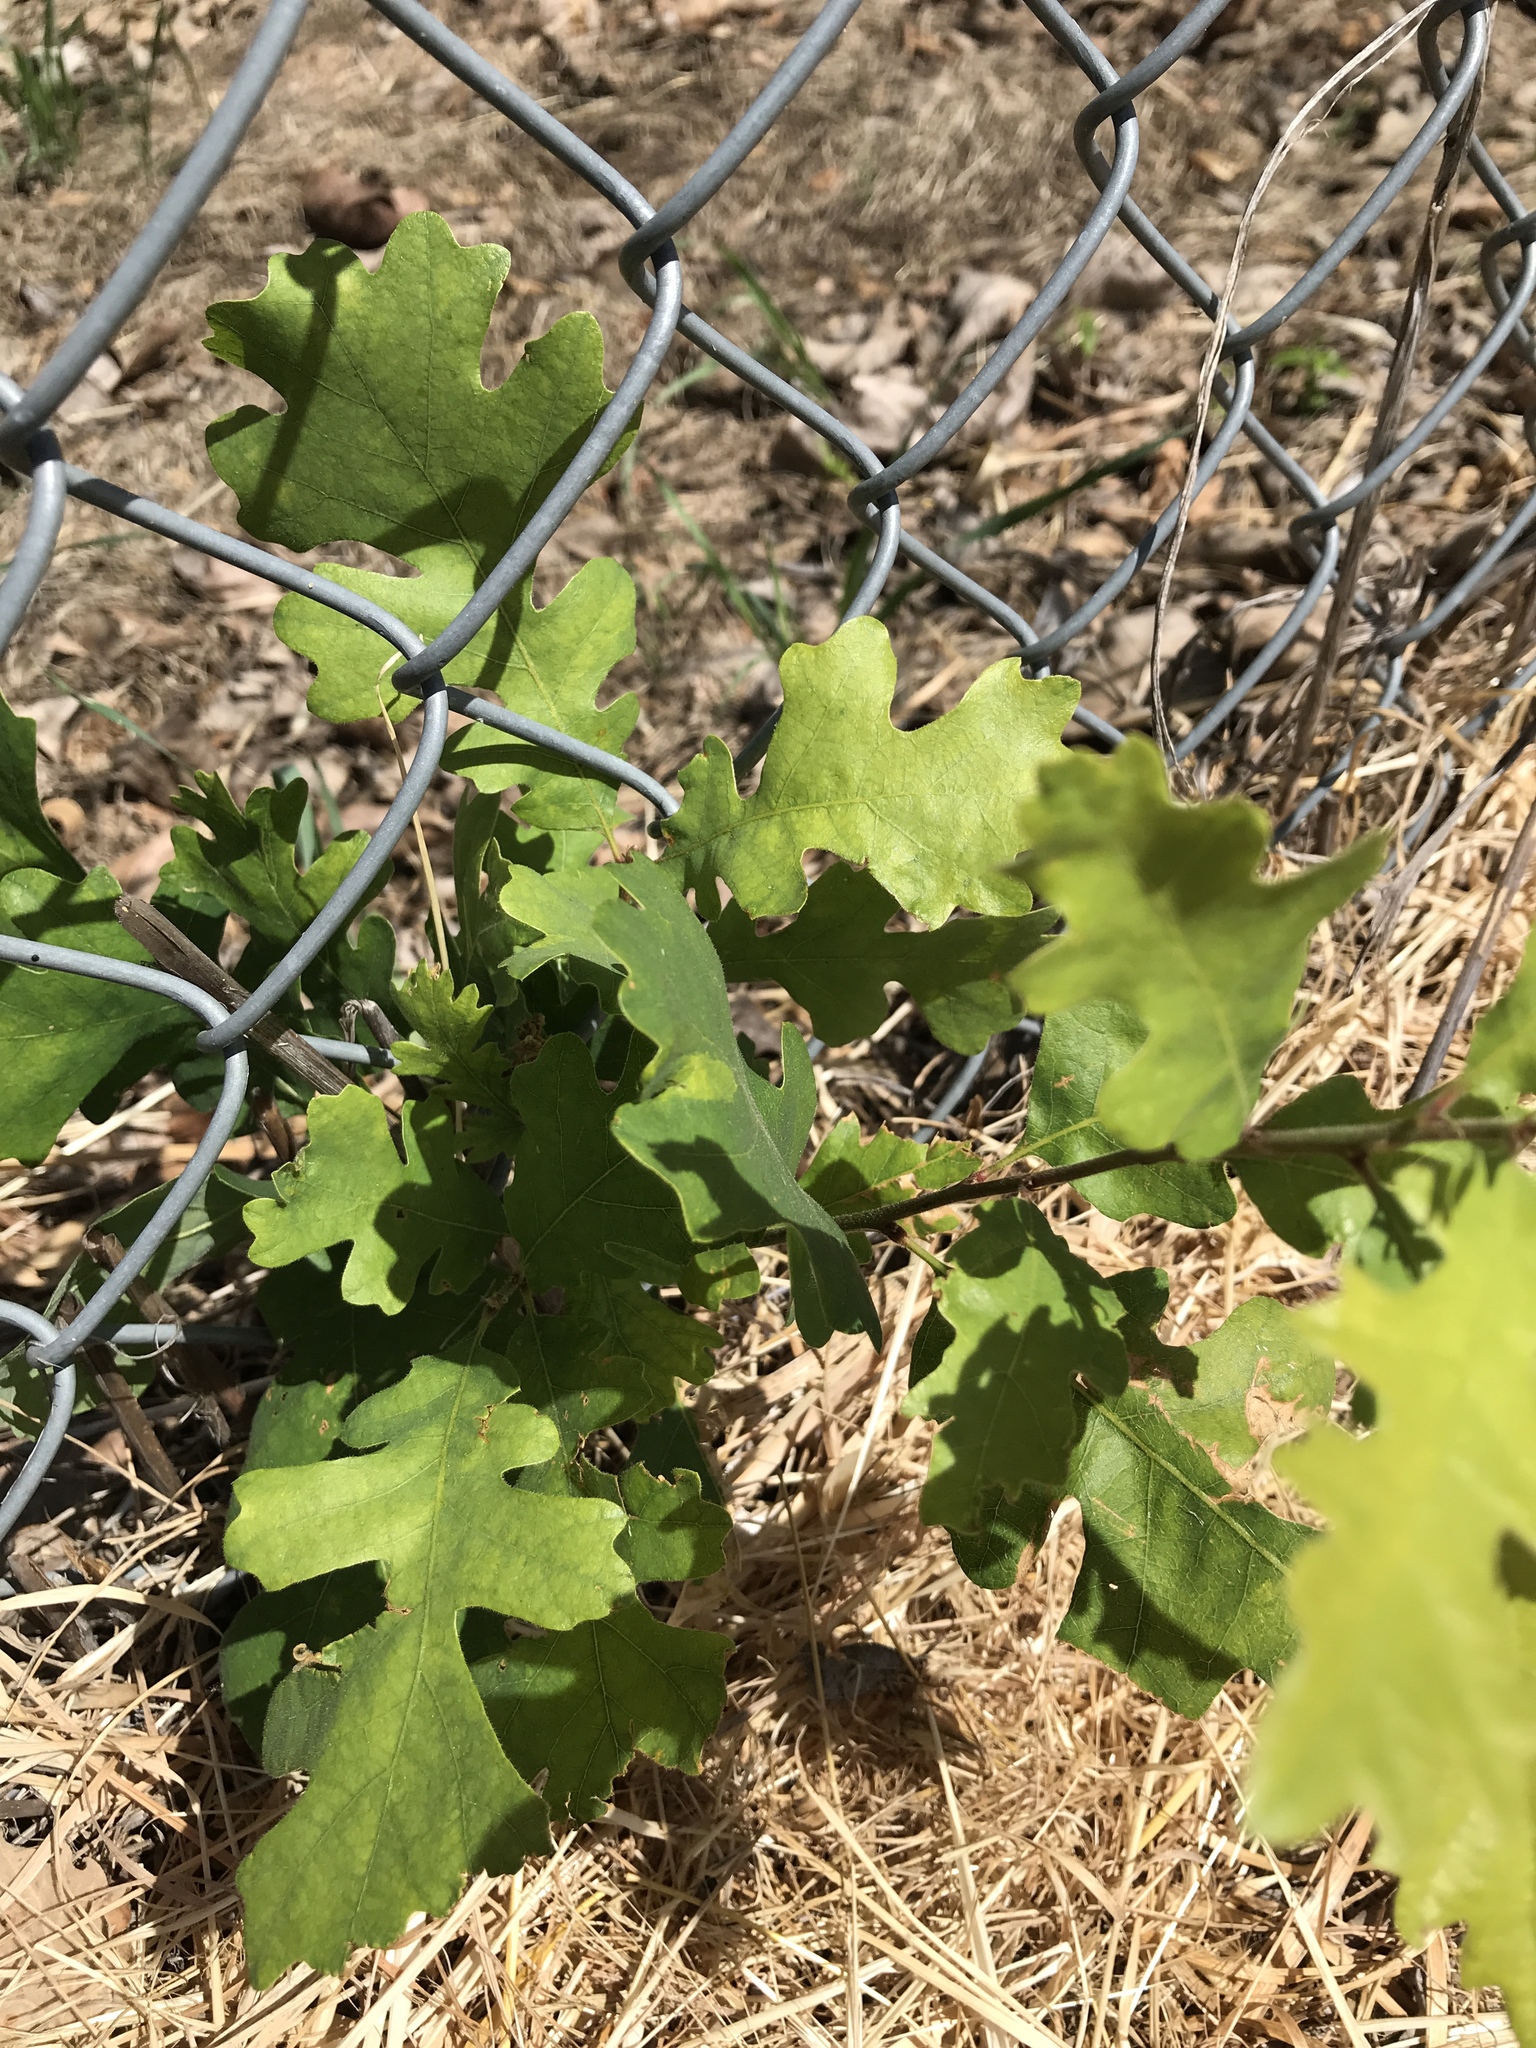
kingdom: Plantae
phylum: Tracheophyta
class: Magnoliopsida
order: Fagales
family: Fagaceae
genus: Quercus
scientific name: Quercus lobata
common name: Valley oak
